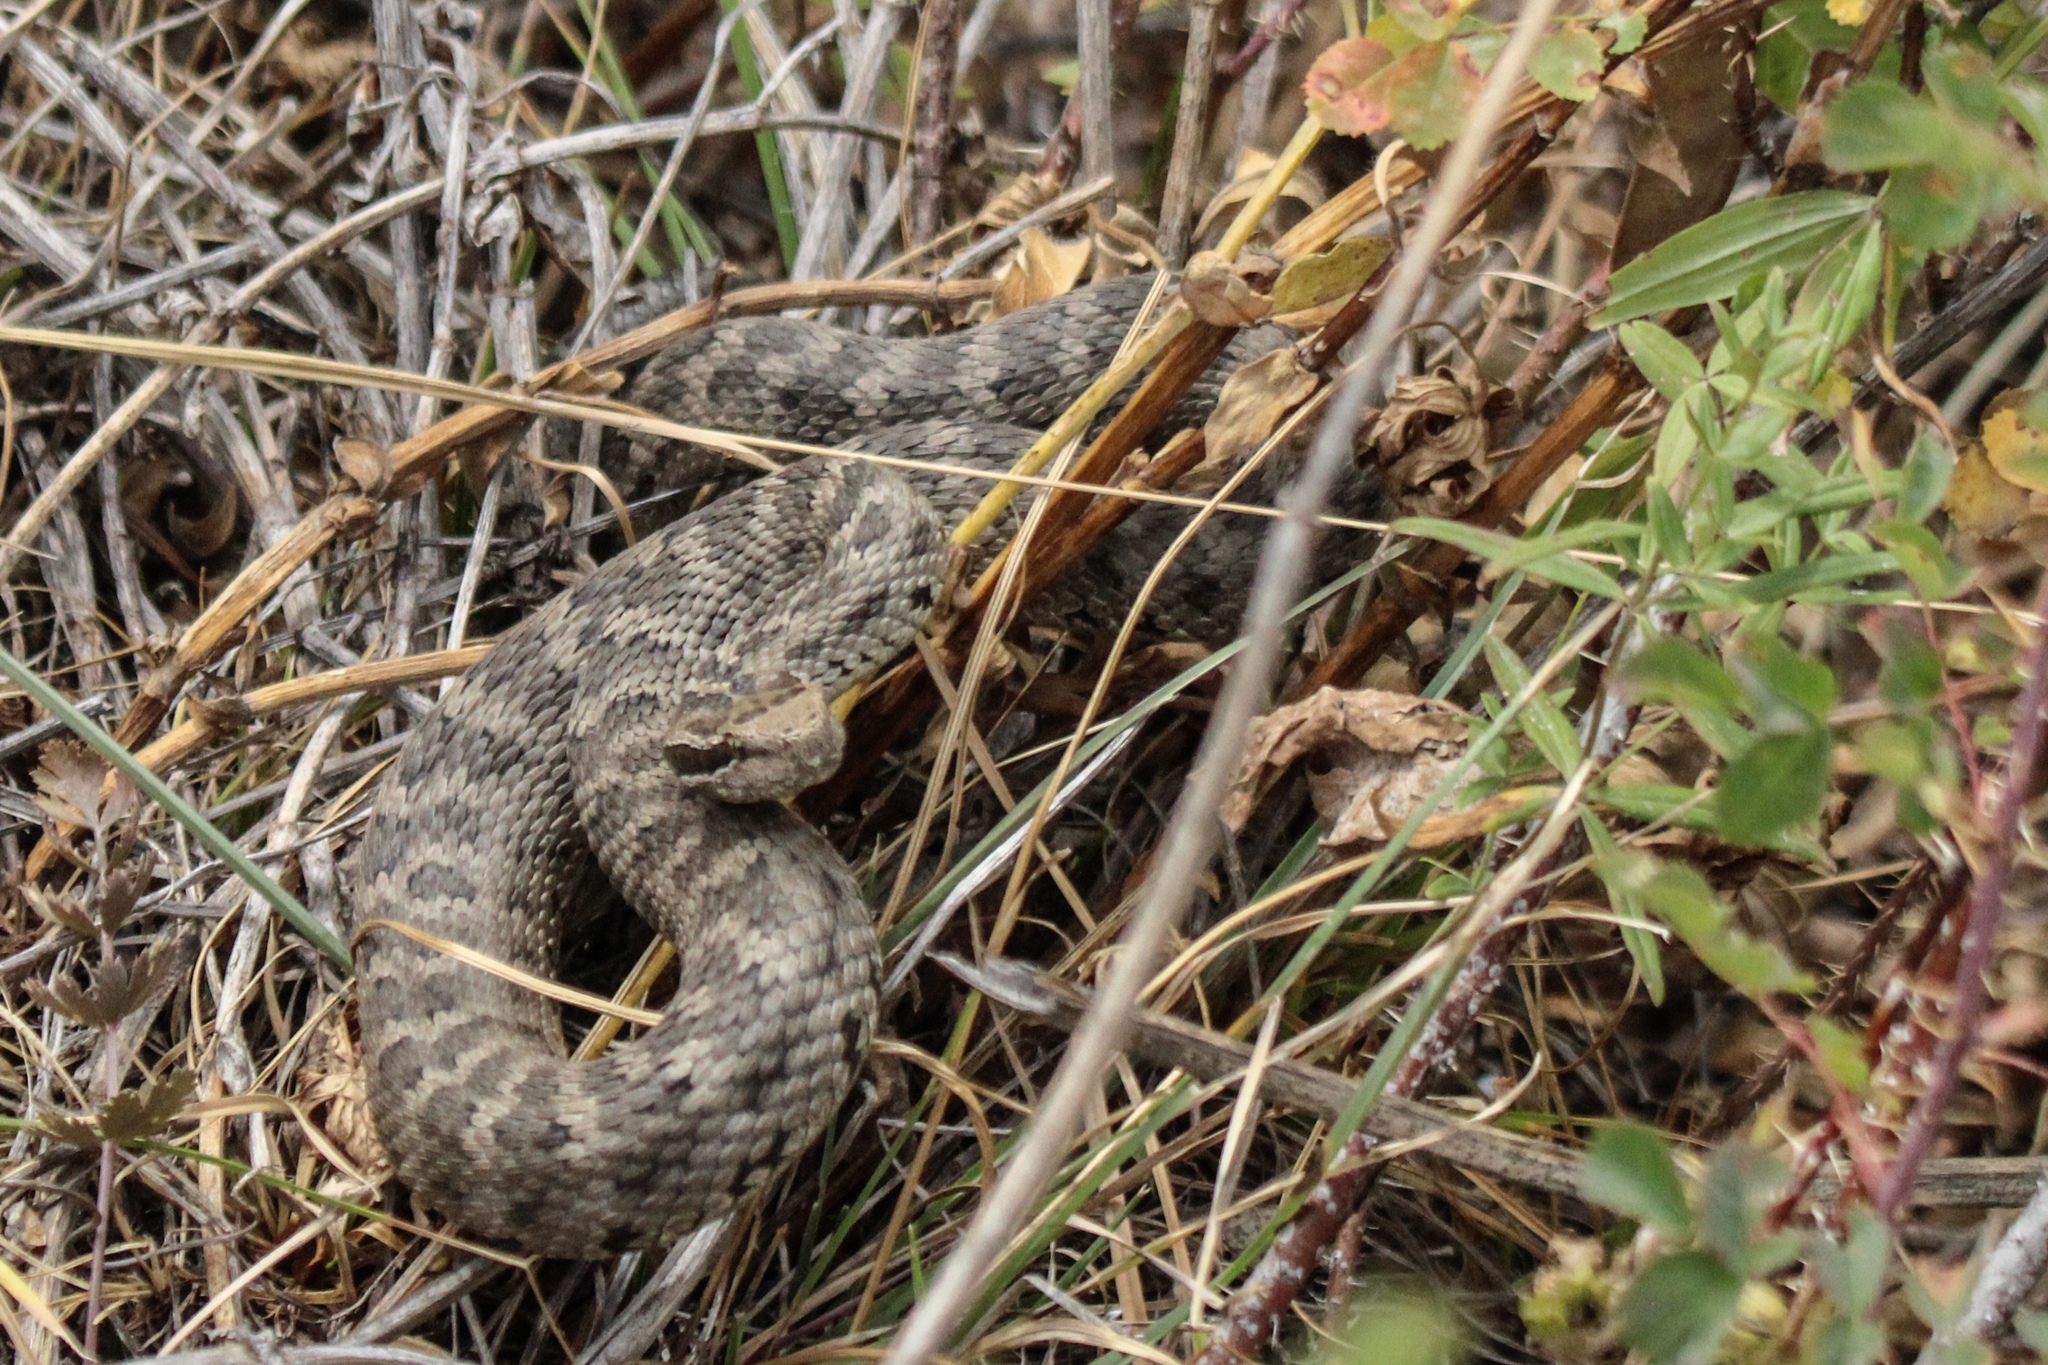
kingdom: Animalia
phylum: Chordata
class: Squamata
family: Viperidae
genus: Gloydius
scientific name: Gloydius halys
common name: Halys pit viper
